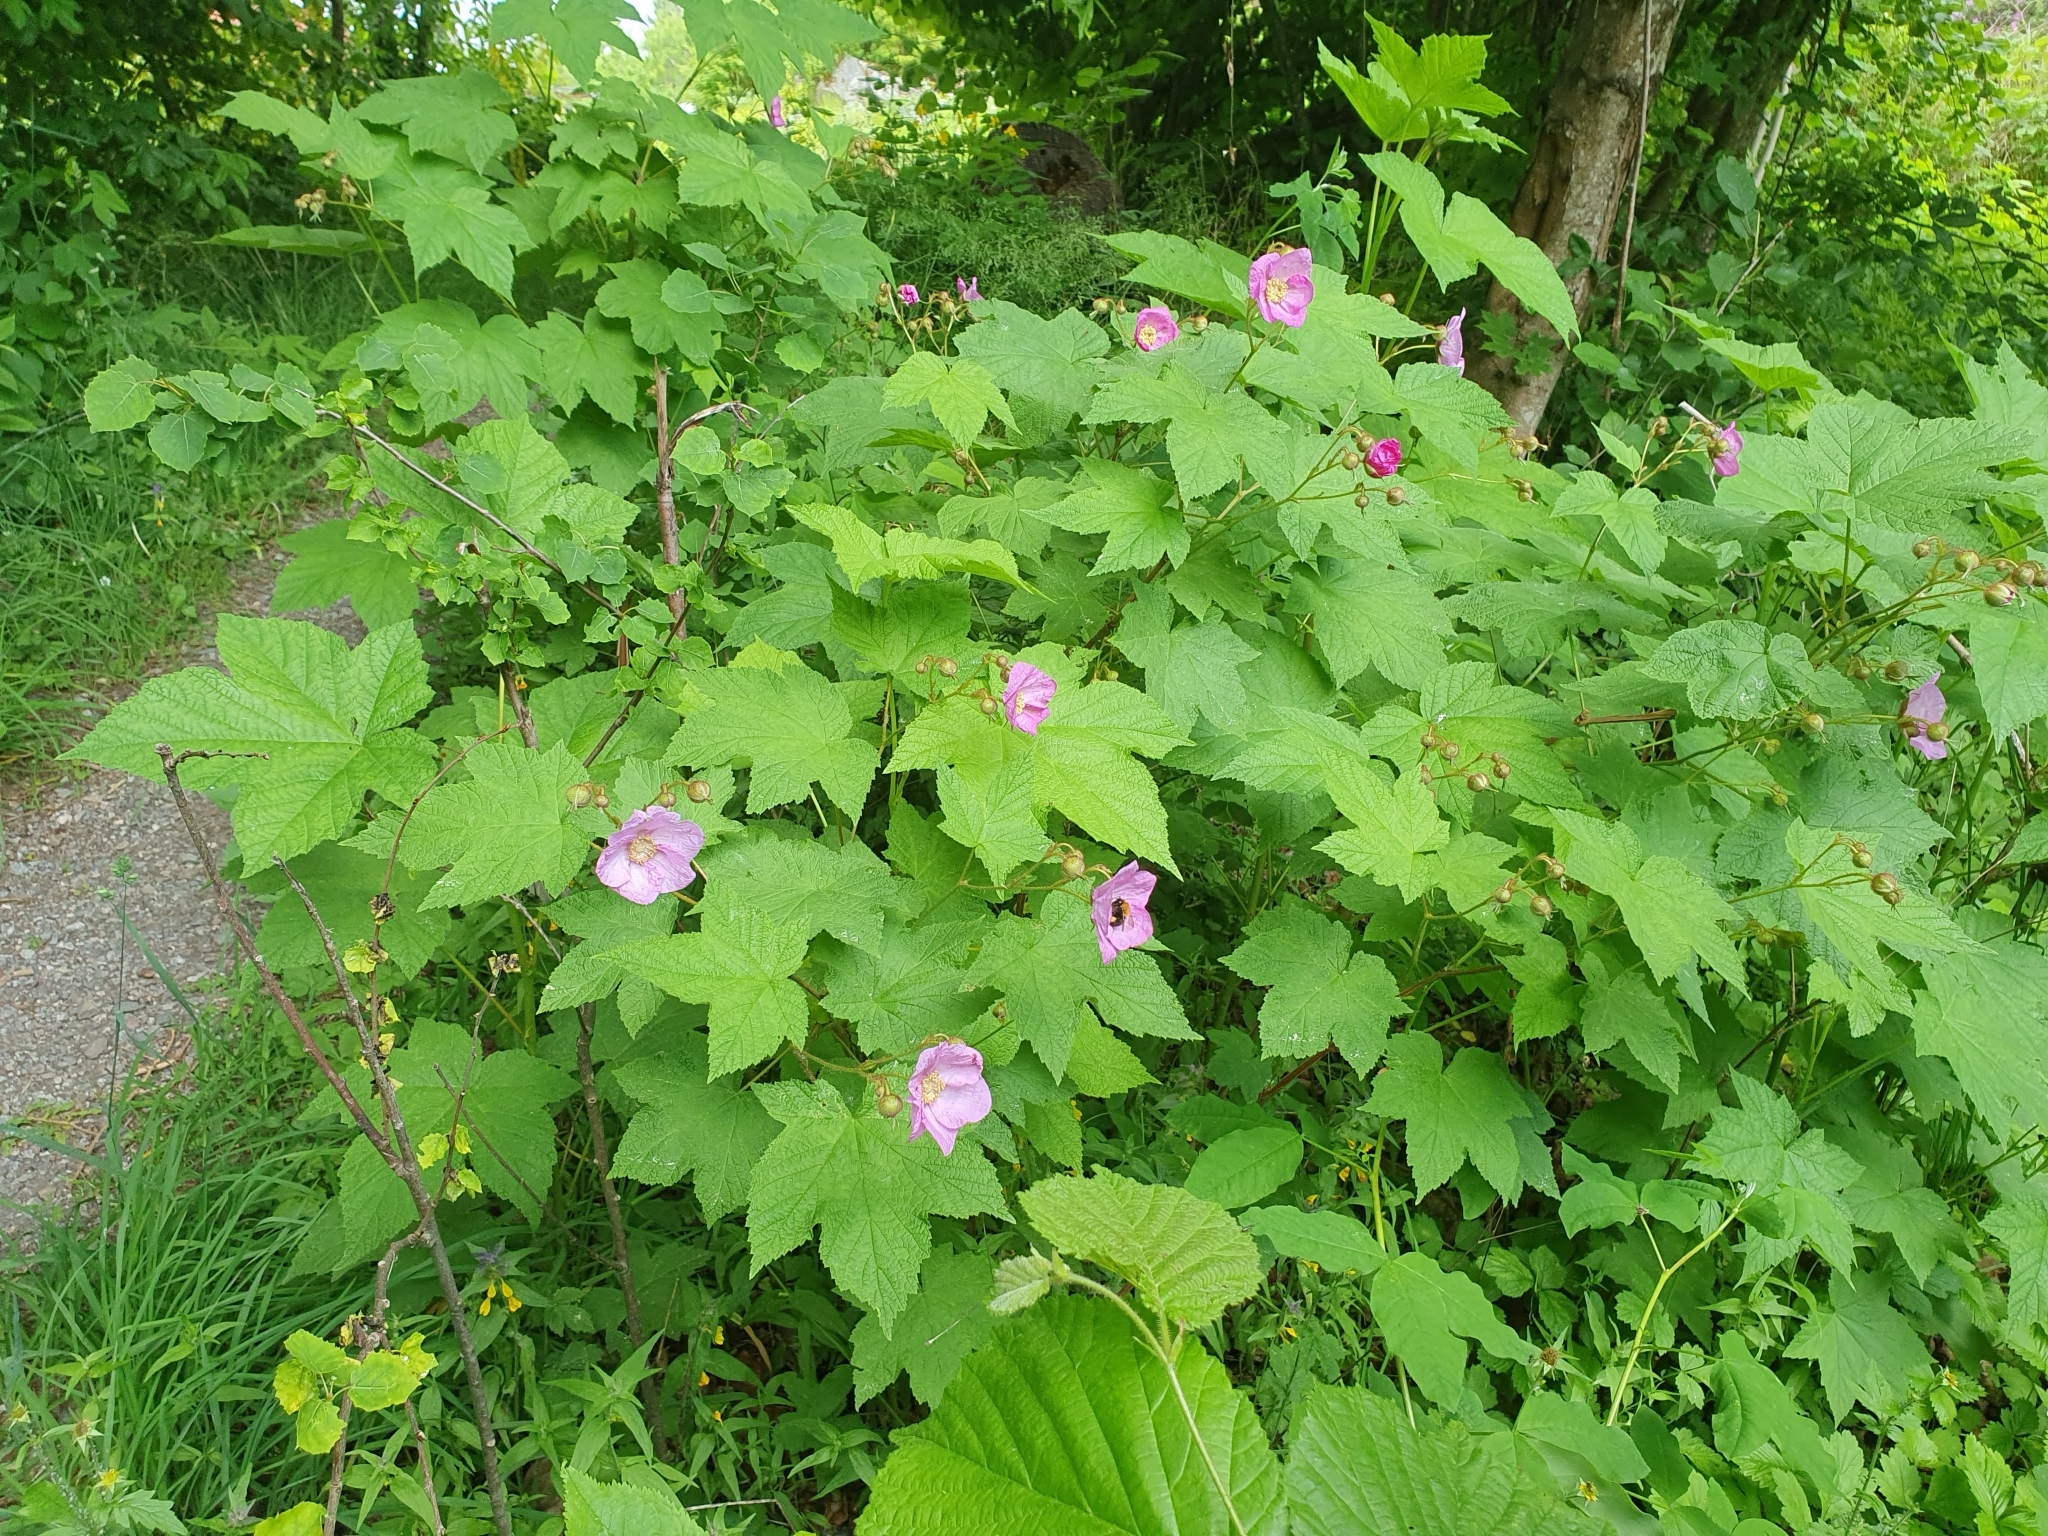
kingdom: Plantae
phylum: Tracheophyta
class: Magnoliopsida
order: Rosales
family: Rosaceae
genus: Rubus
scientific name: Rubus odoratus
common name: Purple-flowered raspberry
